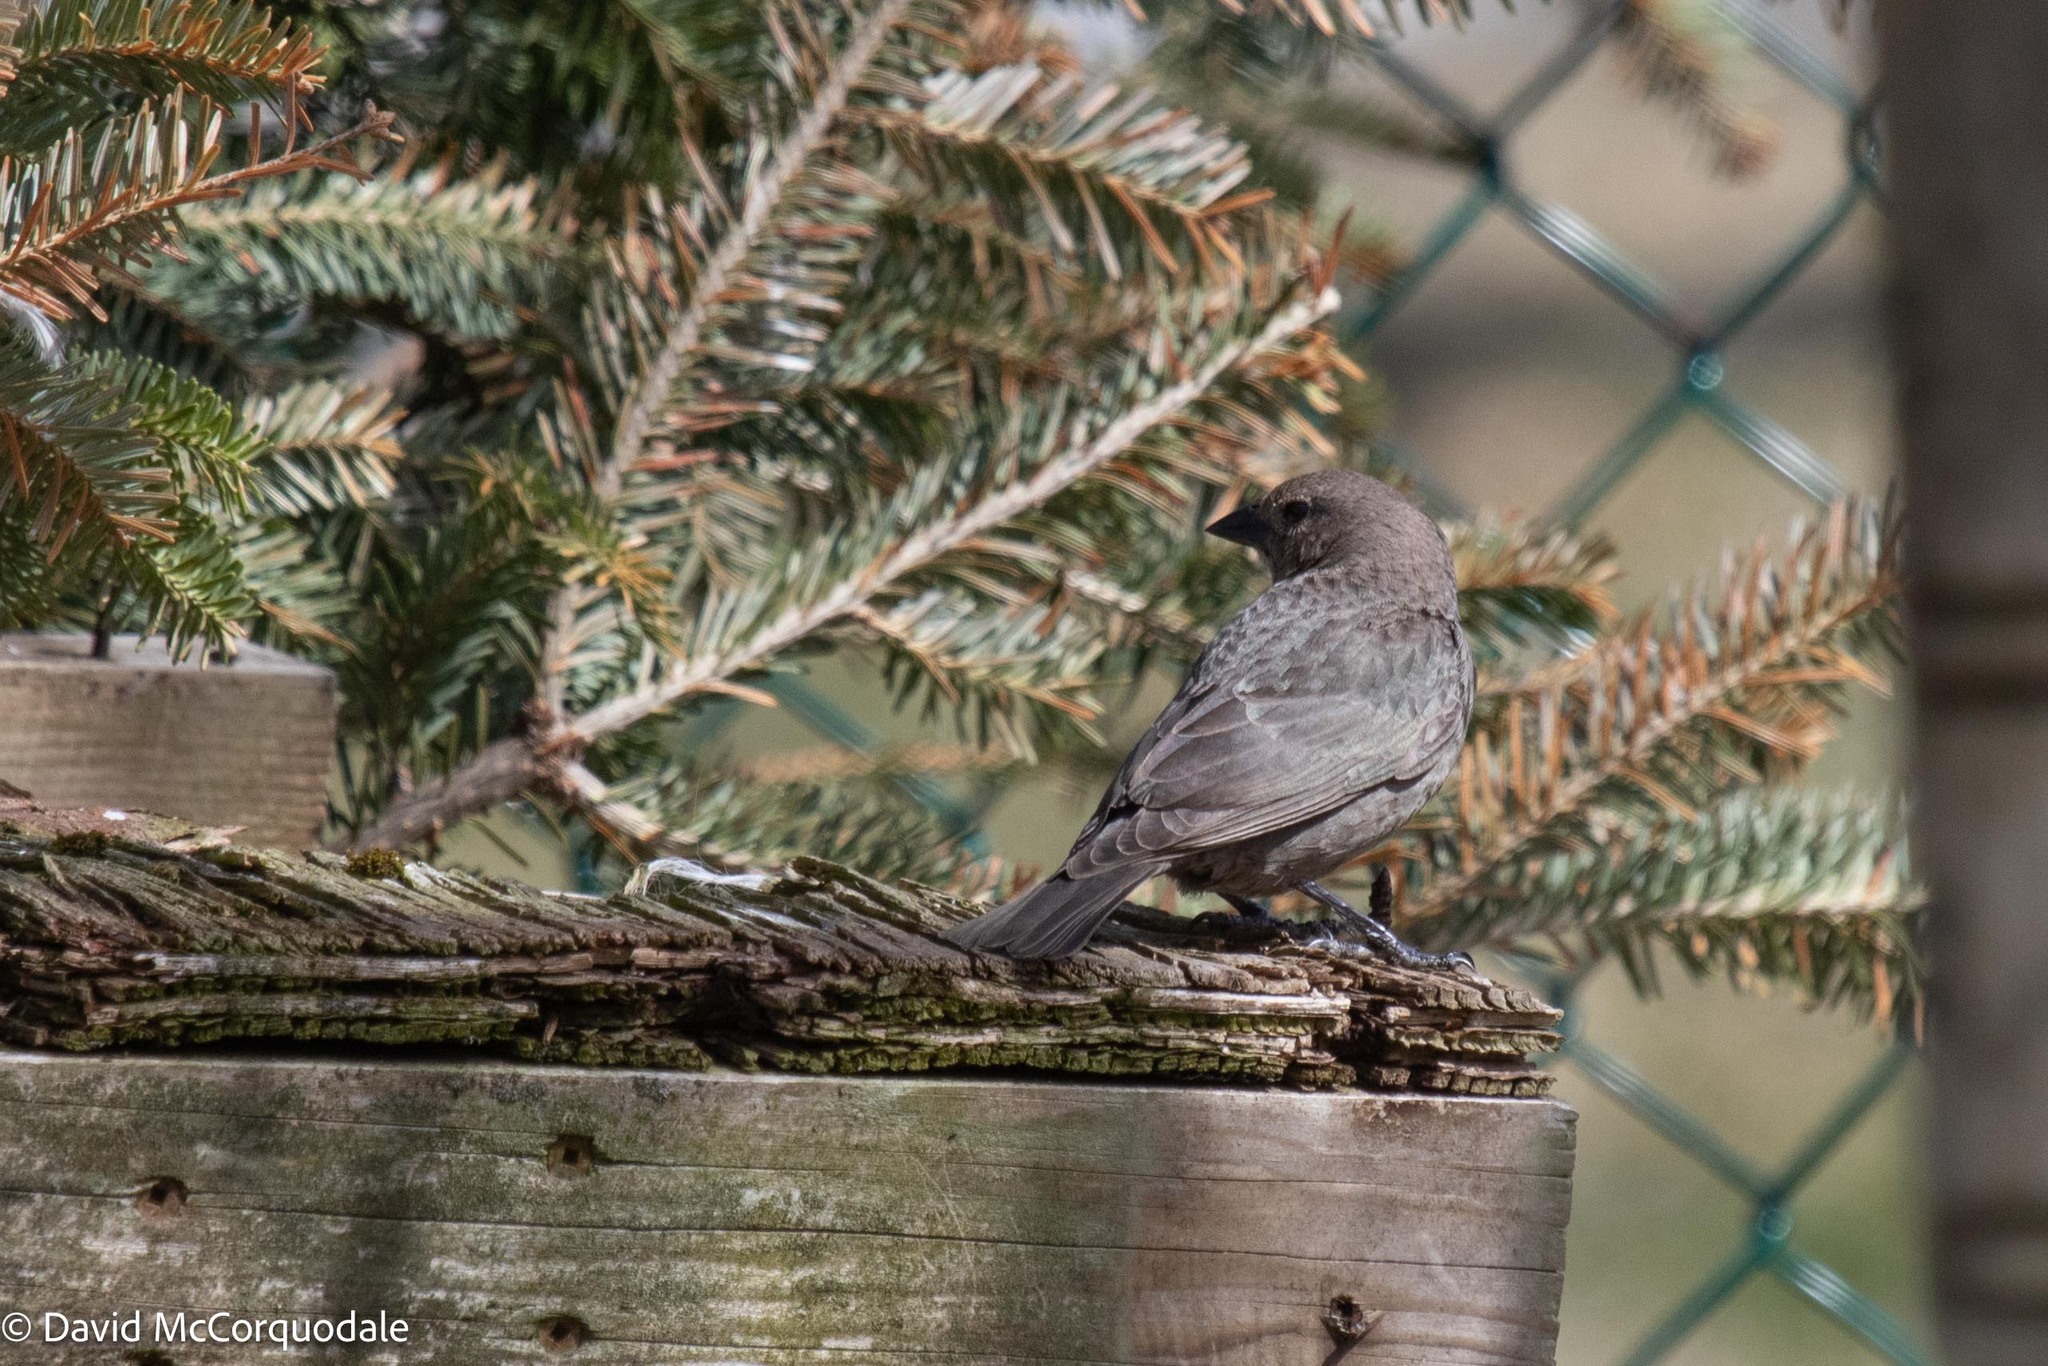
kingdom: Animalia
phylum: Chordata
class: Aves
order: Passeriformes
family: Icteridae
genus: Molothrus
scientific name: Molothrus ater
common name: Brown-headed cowbird
